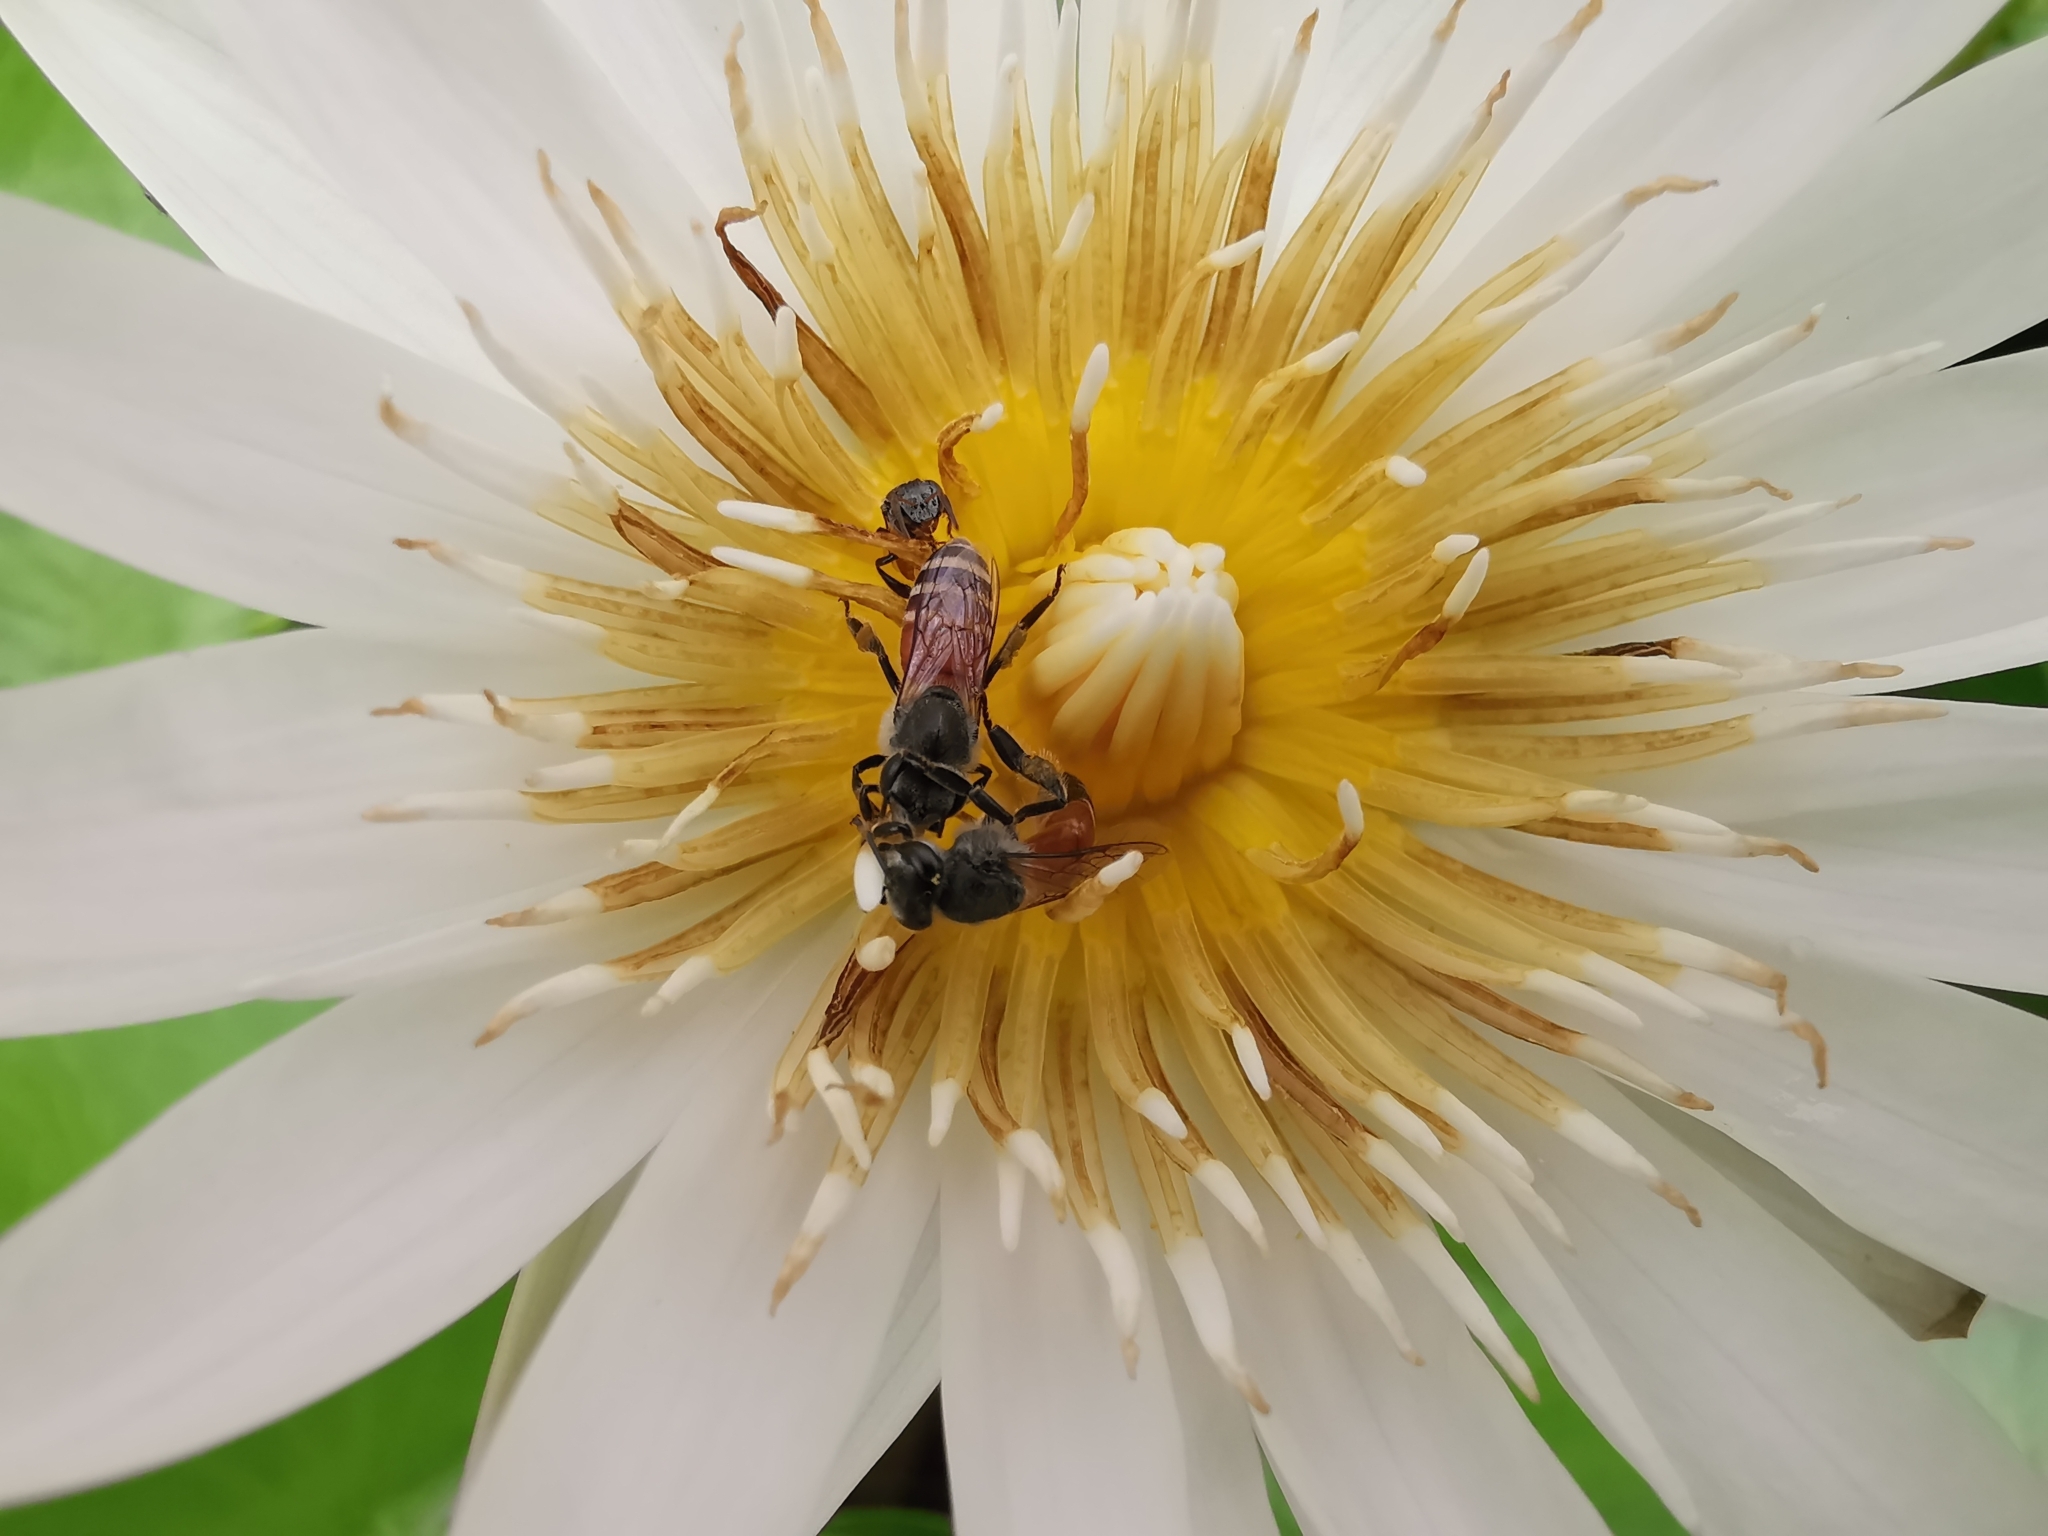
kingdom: Animalia
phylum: Arthropoda
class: Insecta
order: Hymenoptera
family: Apidae
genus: Apis
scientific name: Apis florea
